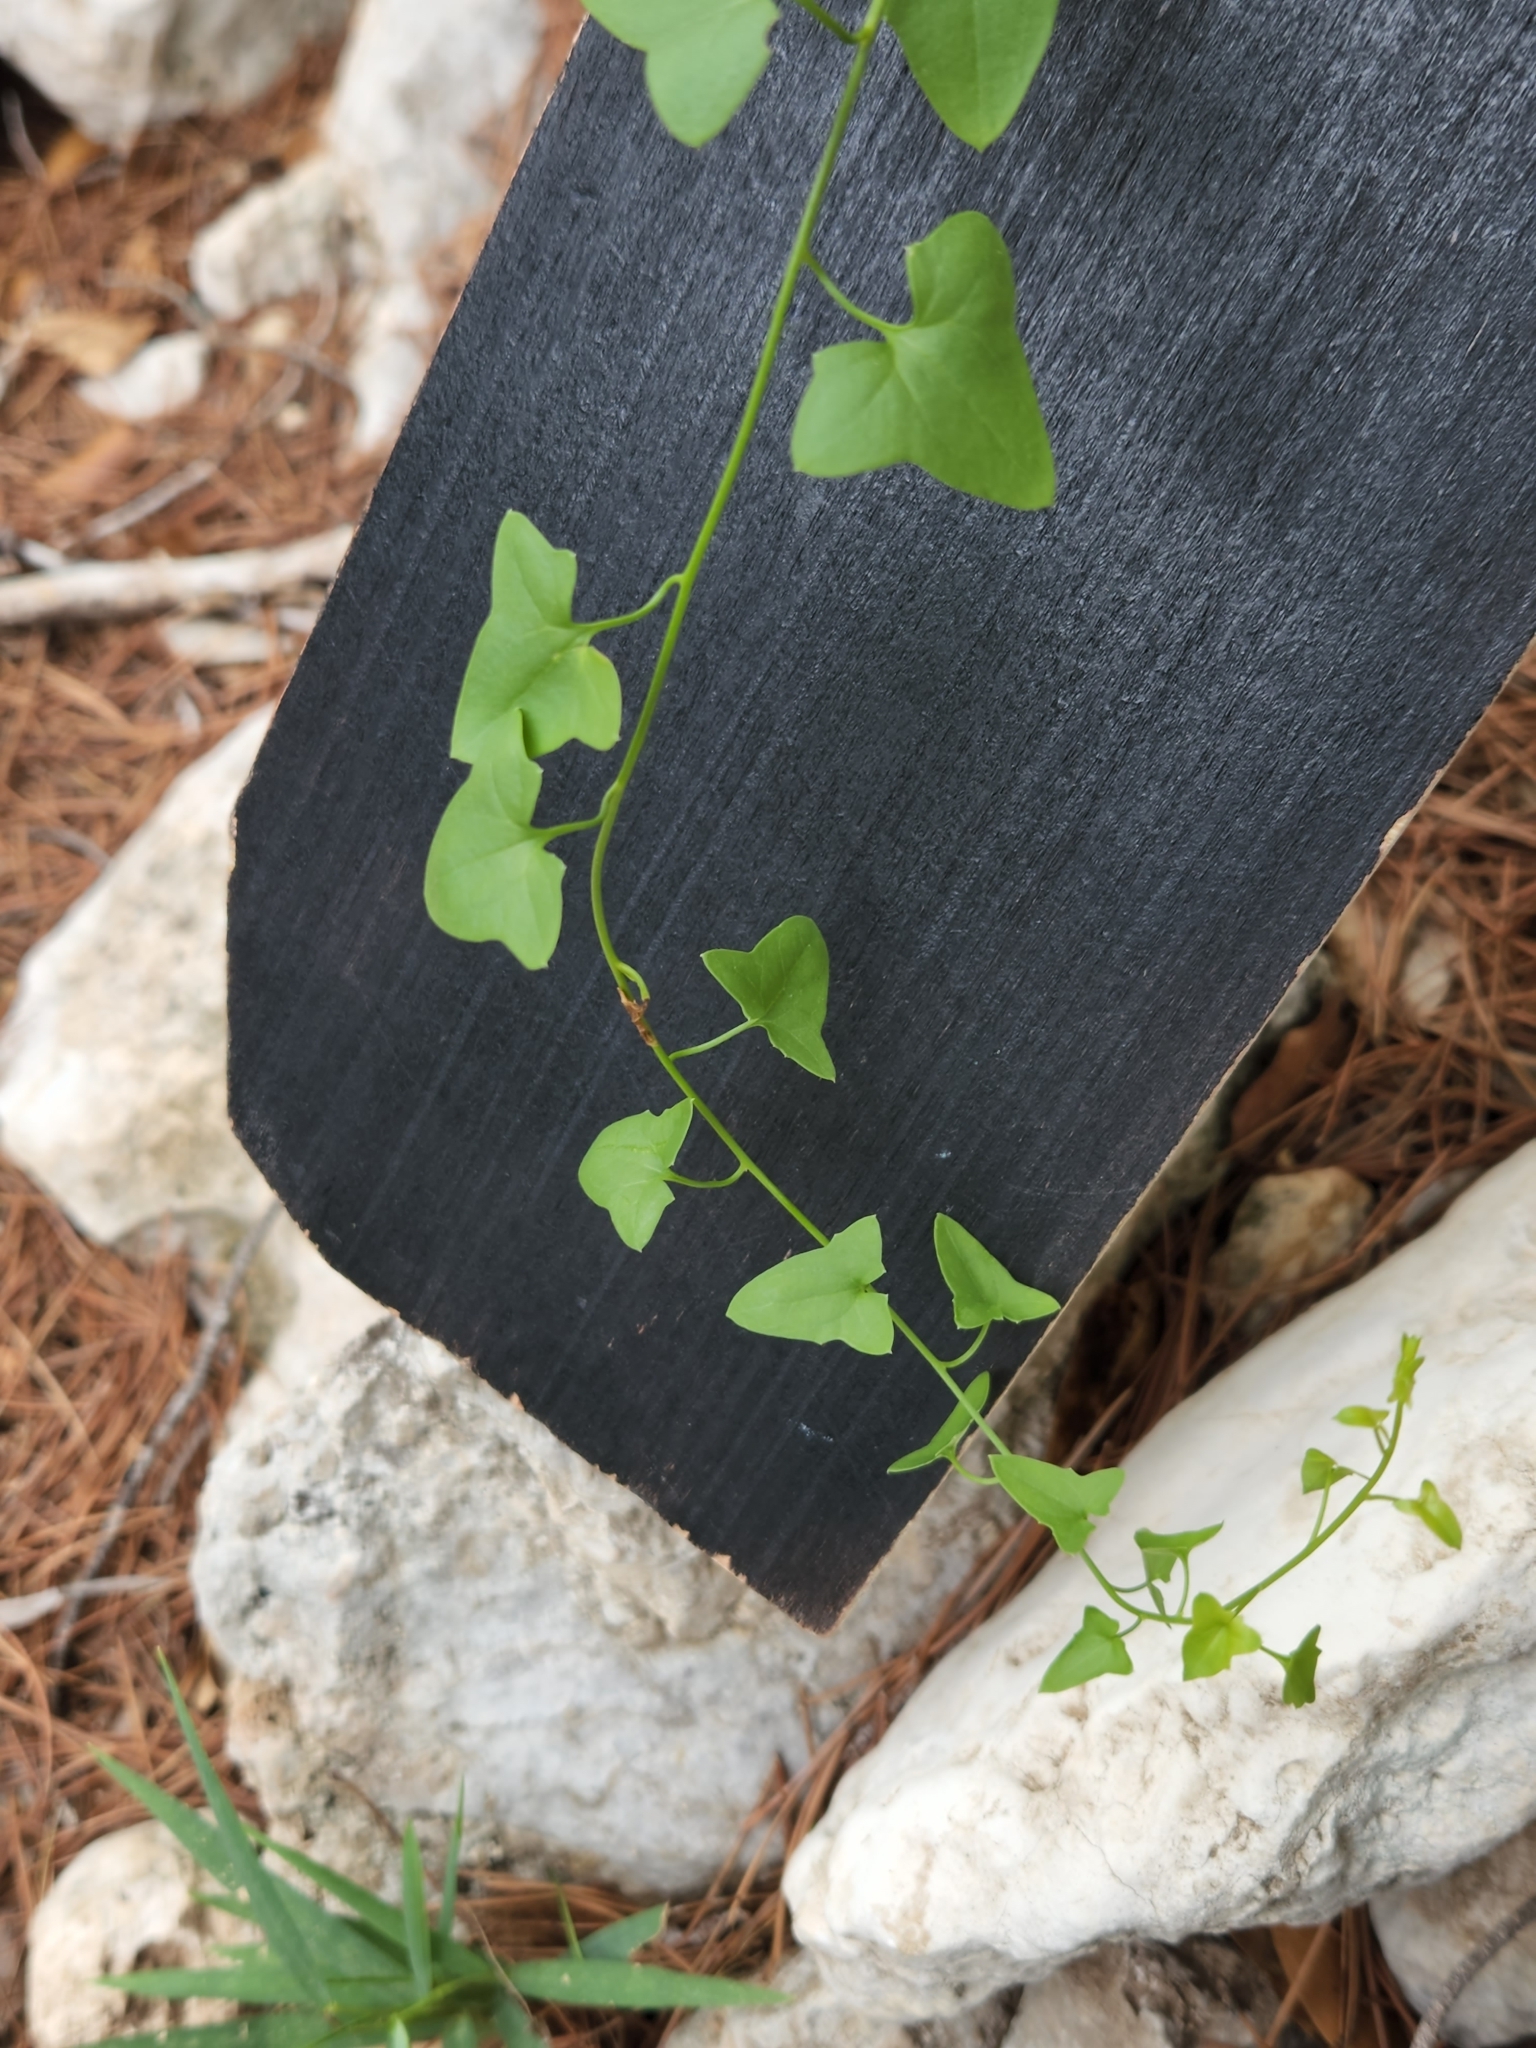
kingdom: Plantae
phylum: Tracheophyta
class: Magnoliopsida
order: Lamiales
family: Plantaginaceae
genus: Maurandella
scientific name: Maurandella antirrhiniflora
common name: Violet twining-snapdragon
